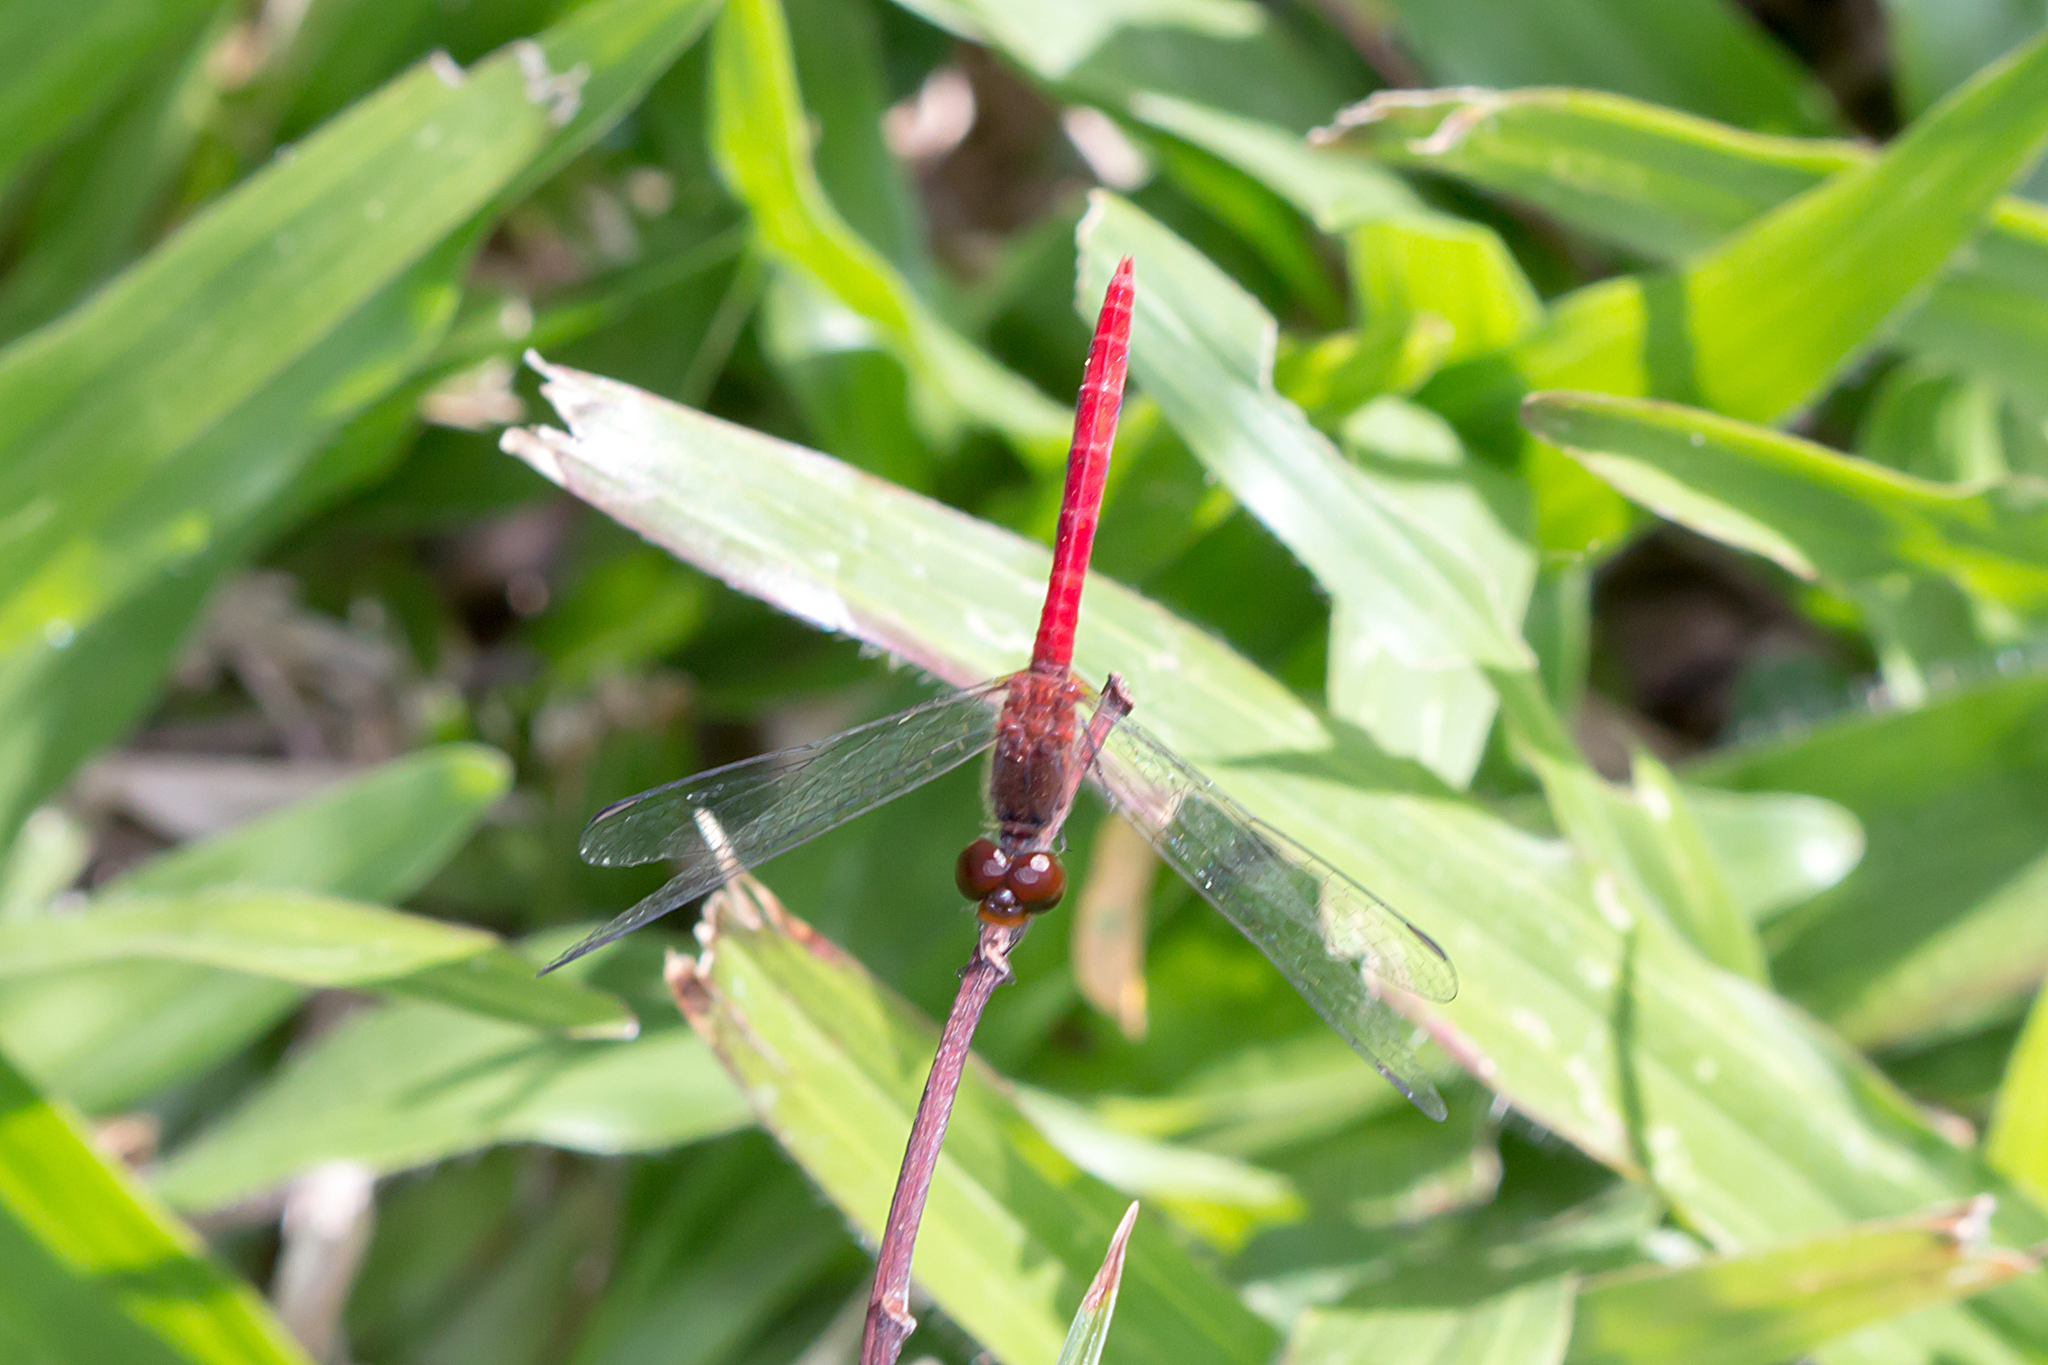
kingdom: Animalia
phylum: Arthropoda
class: Insecta
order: Odonata
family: Libellulidae
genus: Nannodiplax
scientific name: Nannodiplax rubra
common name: Pygmy percher
